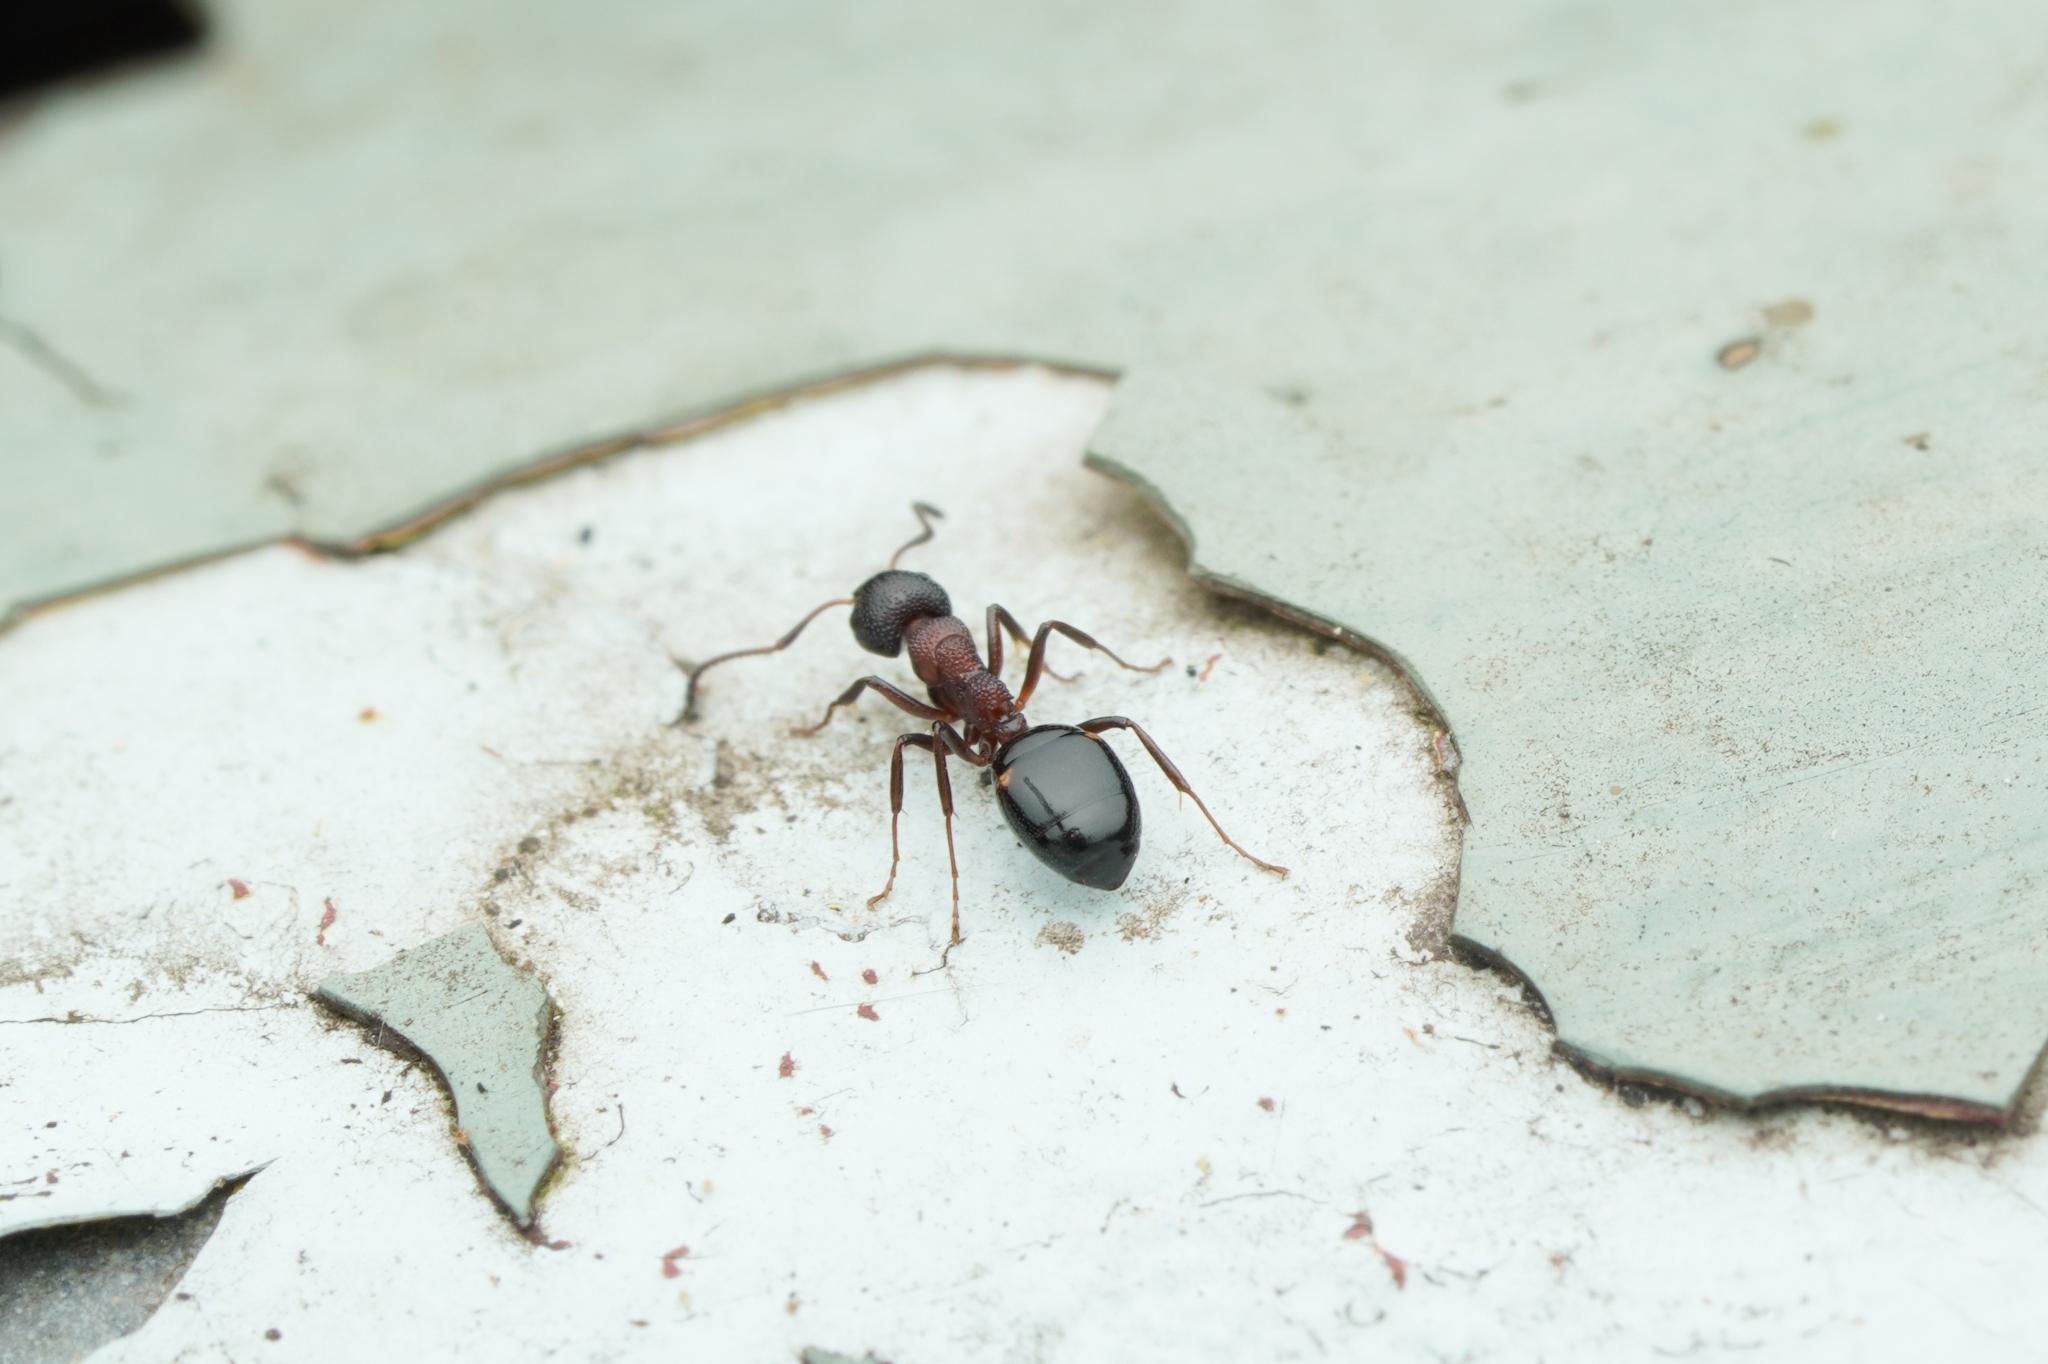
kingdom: Animalia
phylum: Arthropoda
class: Insecta
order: Hymenoptera
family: Formicidae
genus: Dolichoderus
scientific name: Dolichoderus sibiricus
